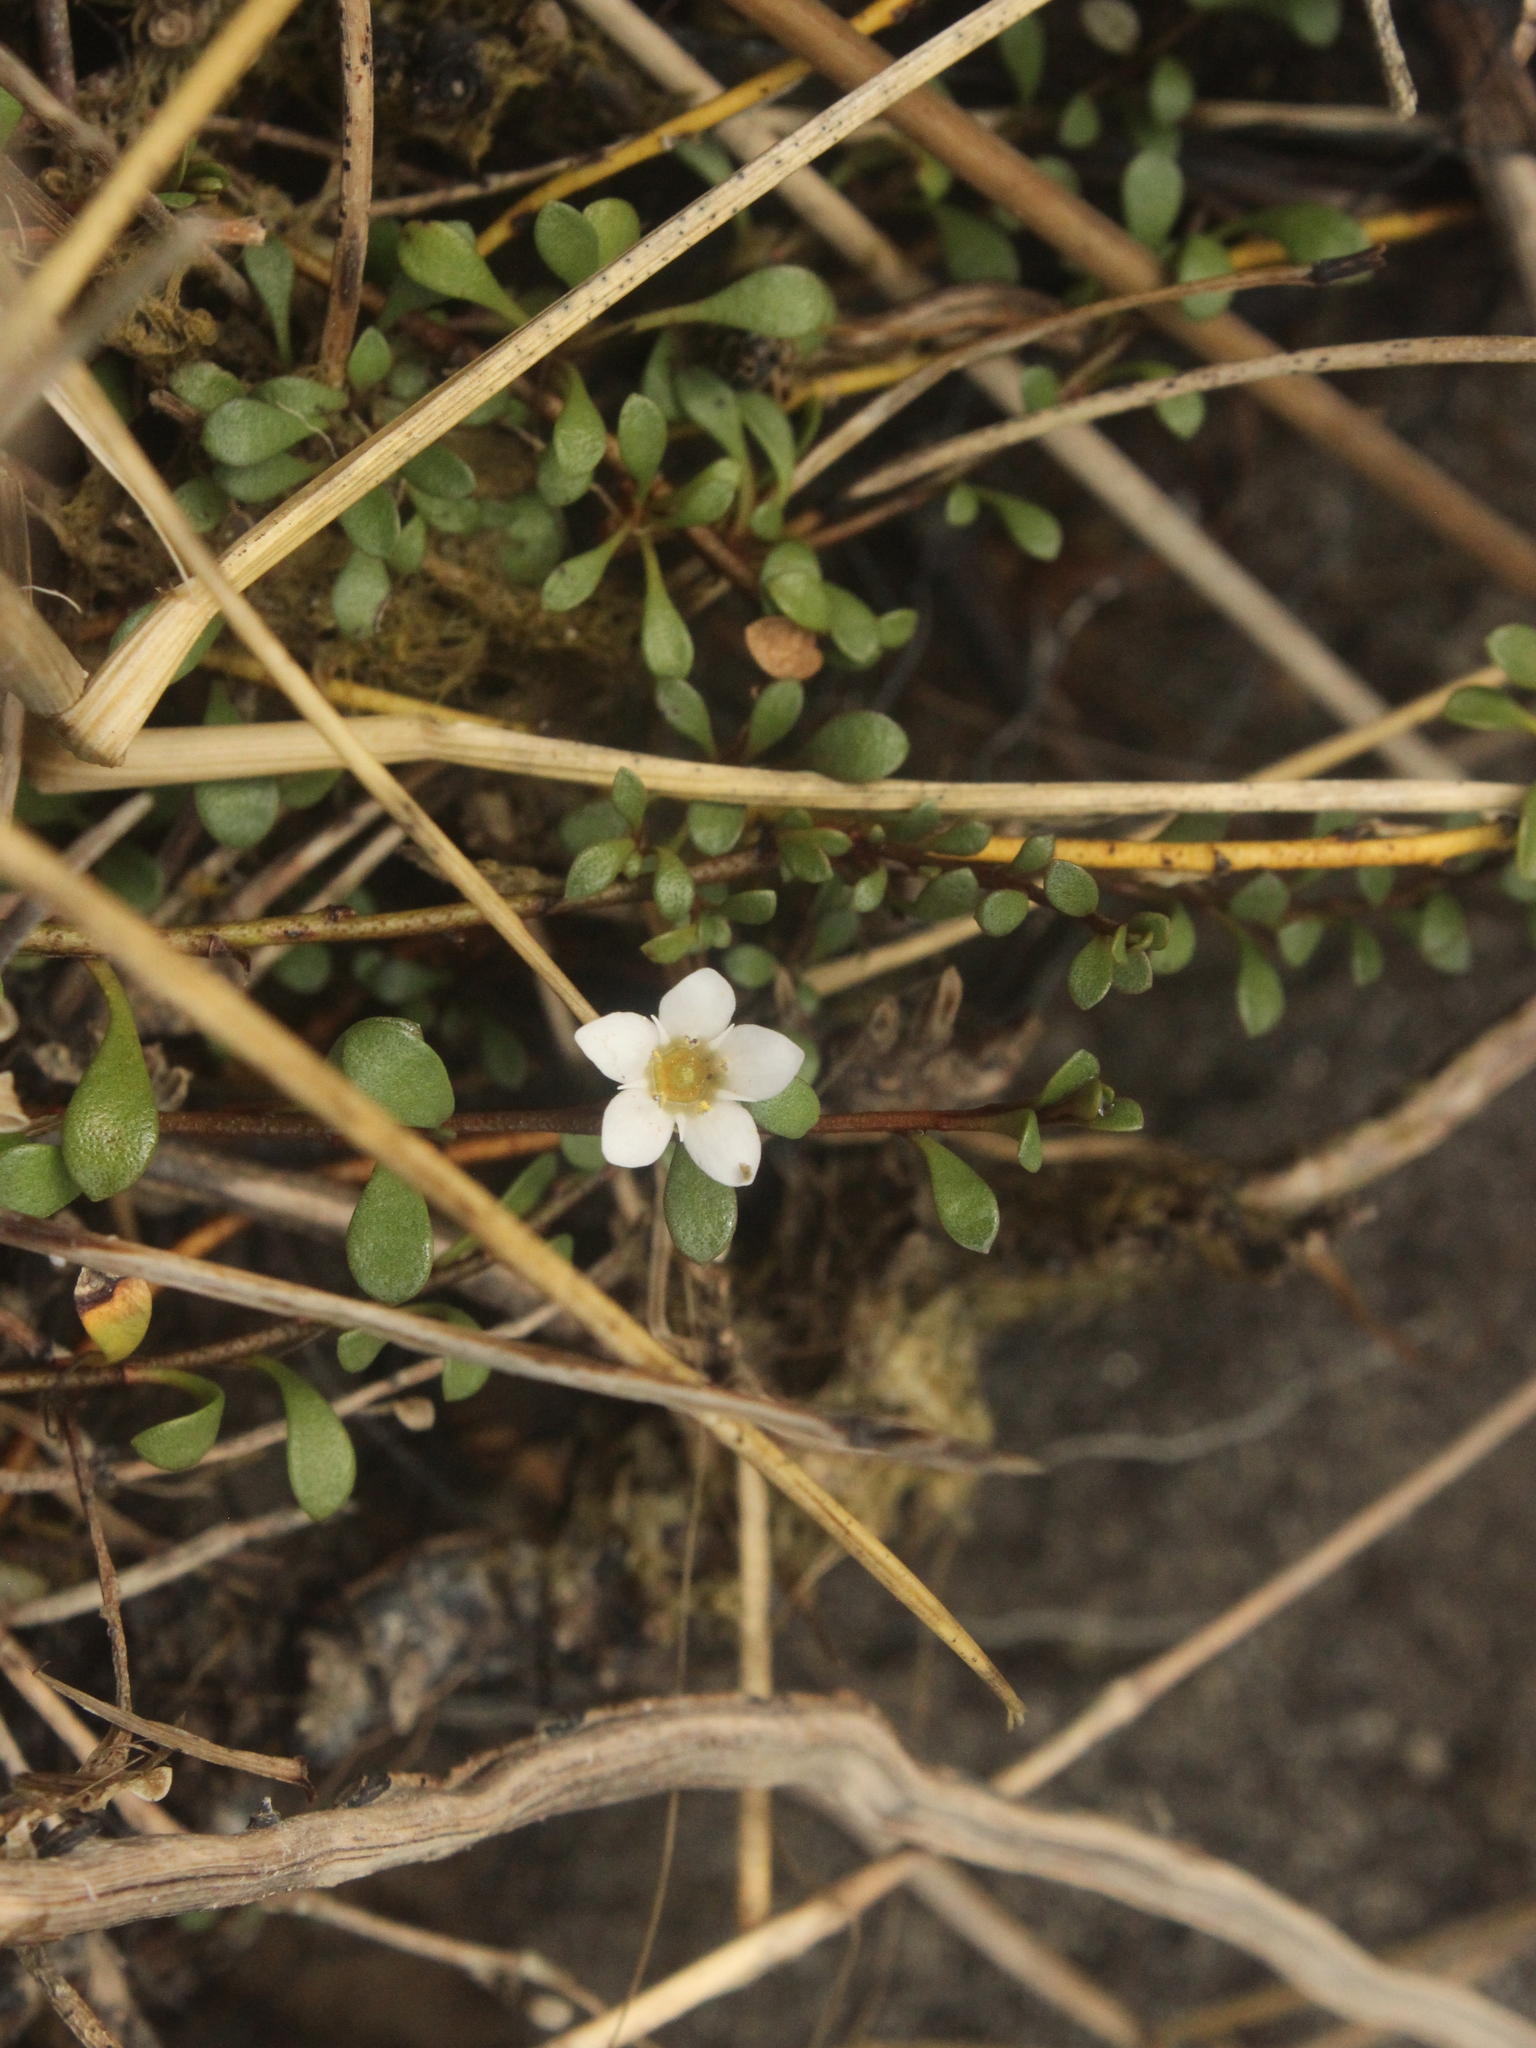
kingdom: Plantae
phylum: Tracheophyta
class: Magnoliopsida
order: Ericales
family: Primulaceae
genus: Samolus
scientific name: Samolus repens
